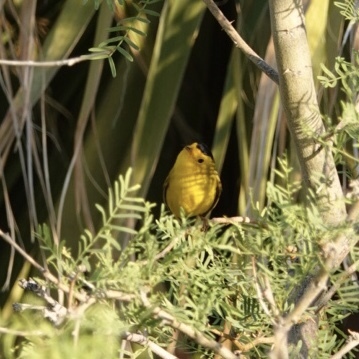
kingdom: Animalia
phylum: Chordata
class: Aves
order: Passeriformes
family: Parulidae
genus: Cardellina
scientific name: Cardellina pusilla
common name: Wilson's warbler
